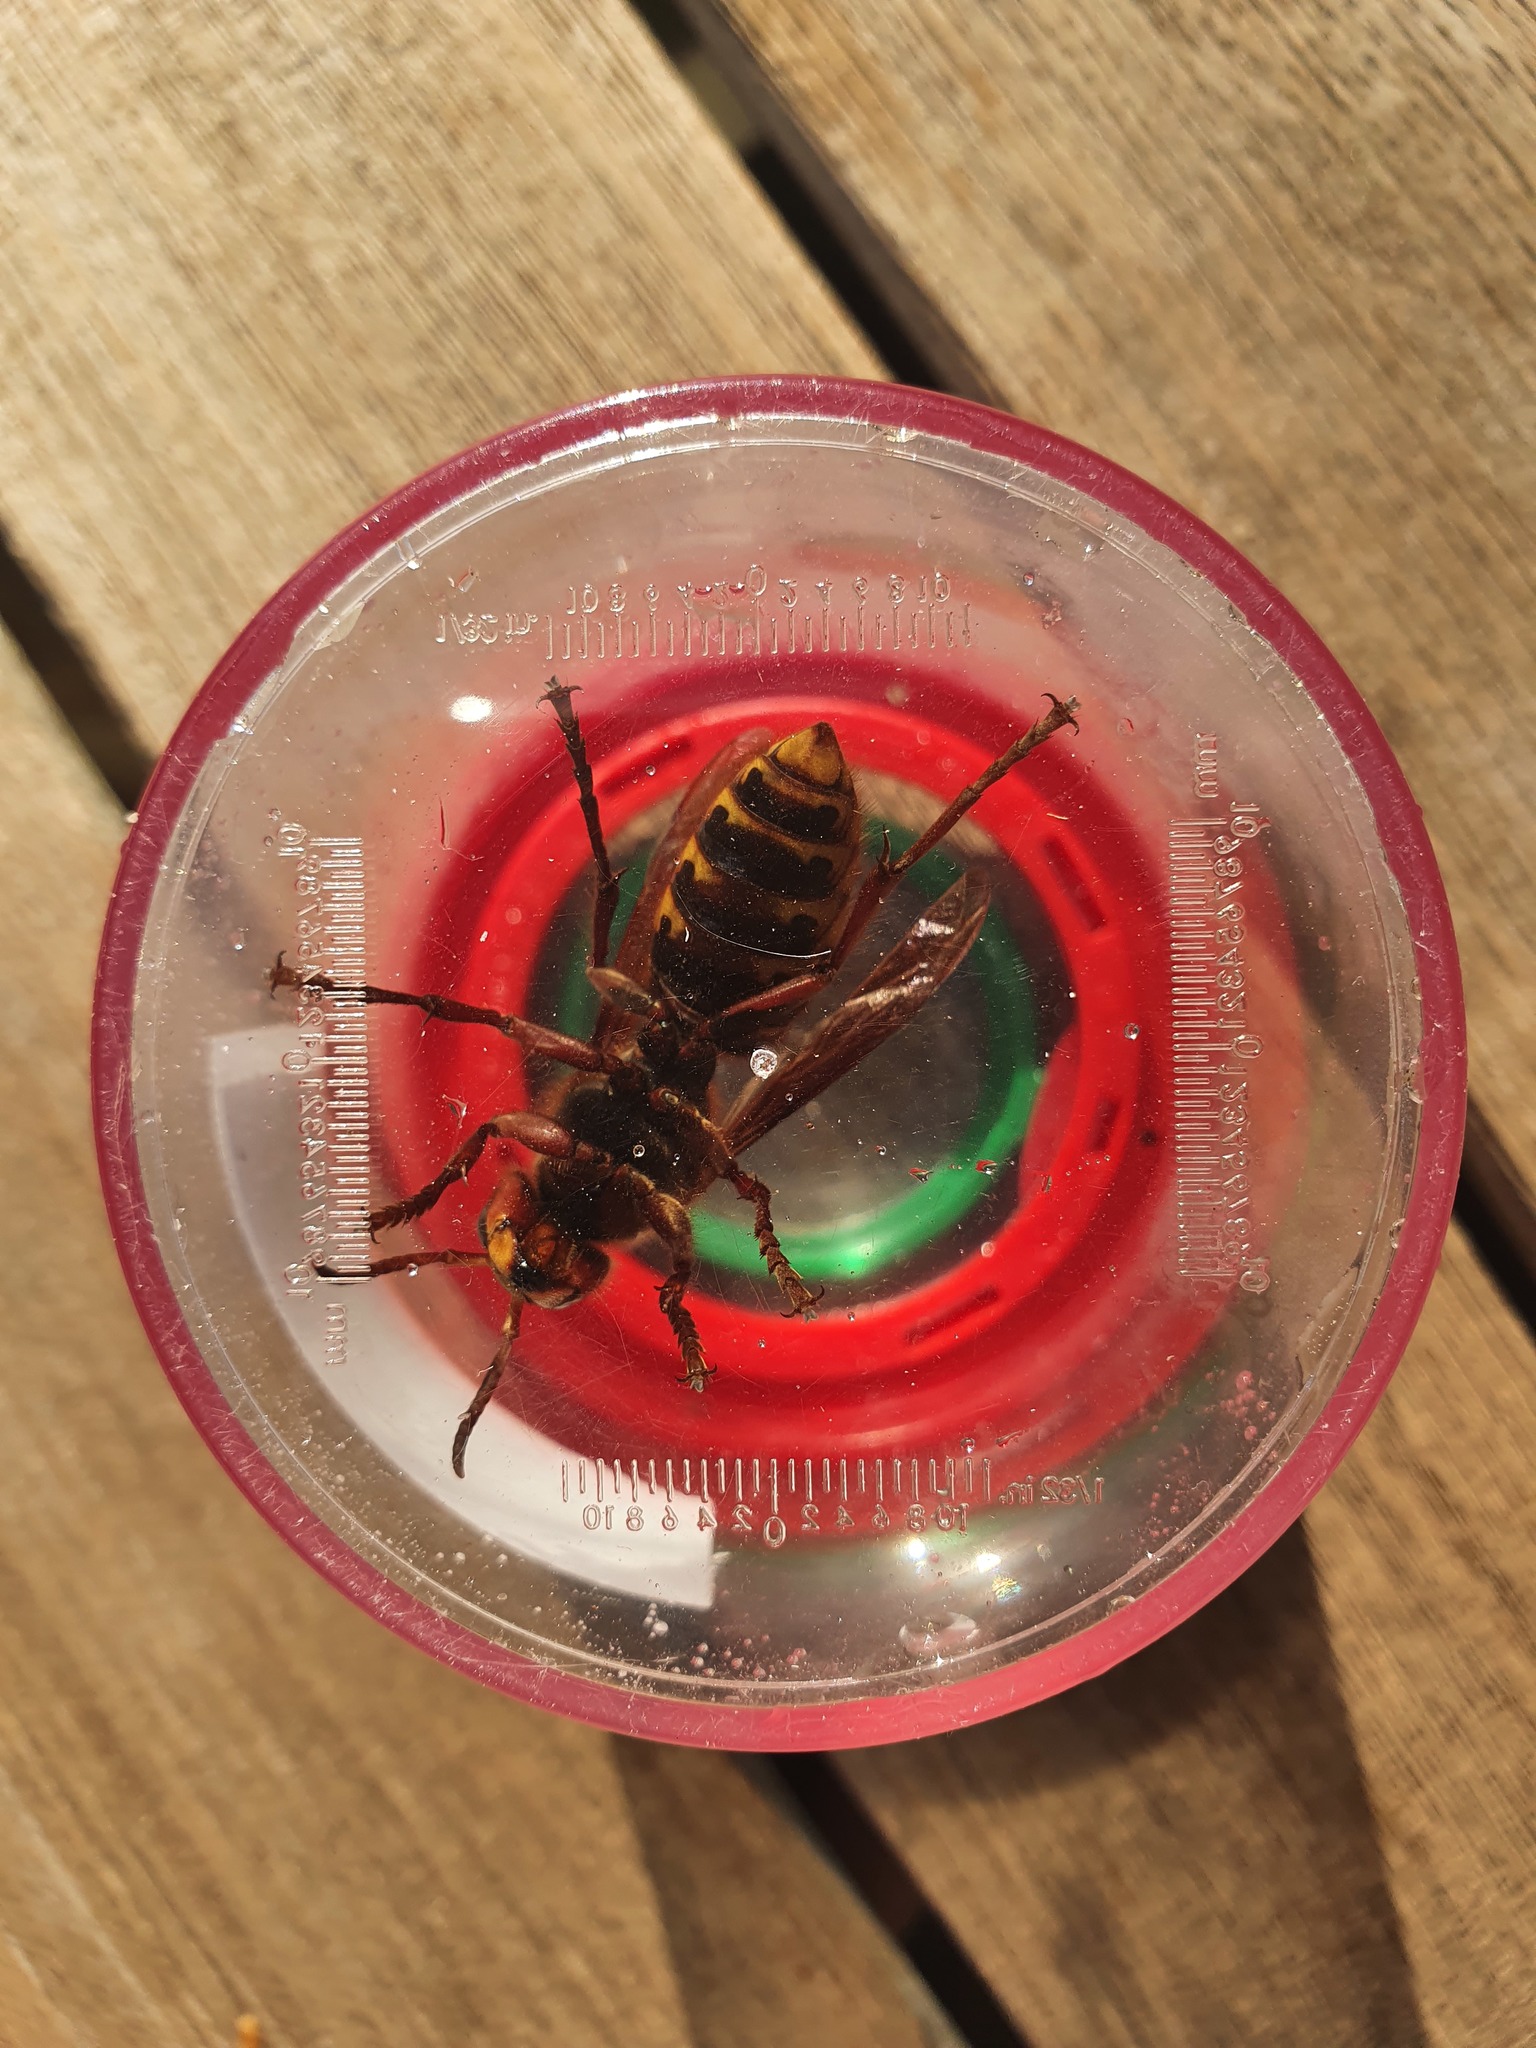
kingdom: Animalia
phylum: Arthropoda
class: Insecta
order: Hymenoptera
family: Vespidae
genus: Vespa
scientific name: Vespa crabro
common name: Hornet
